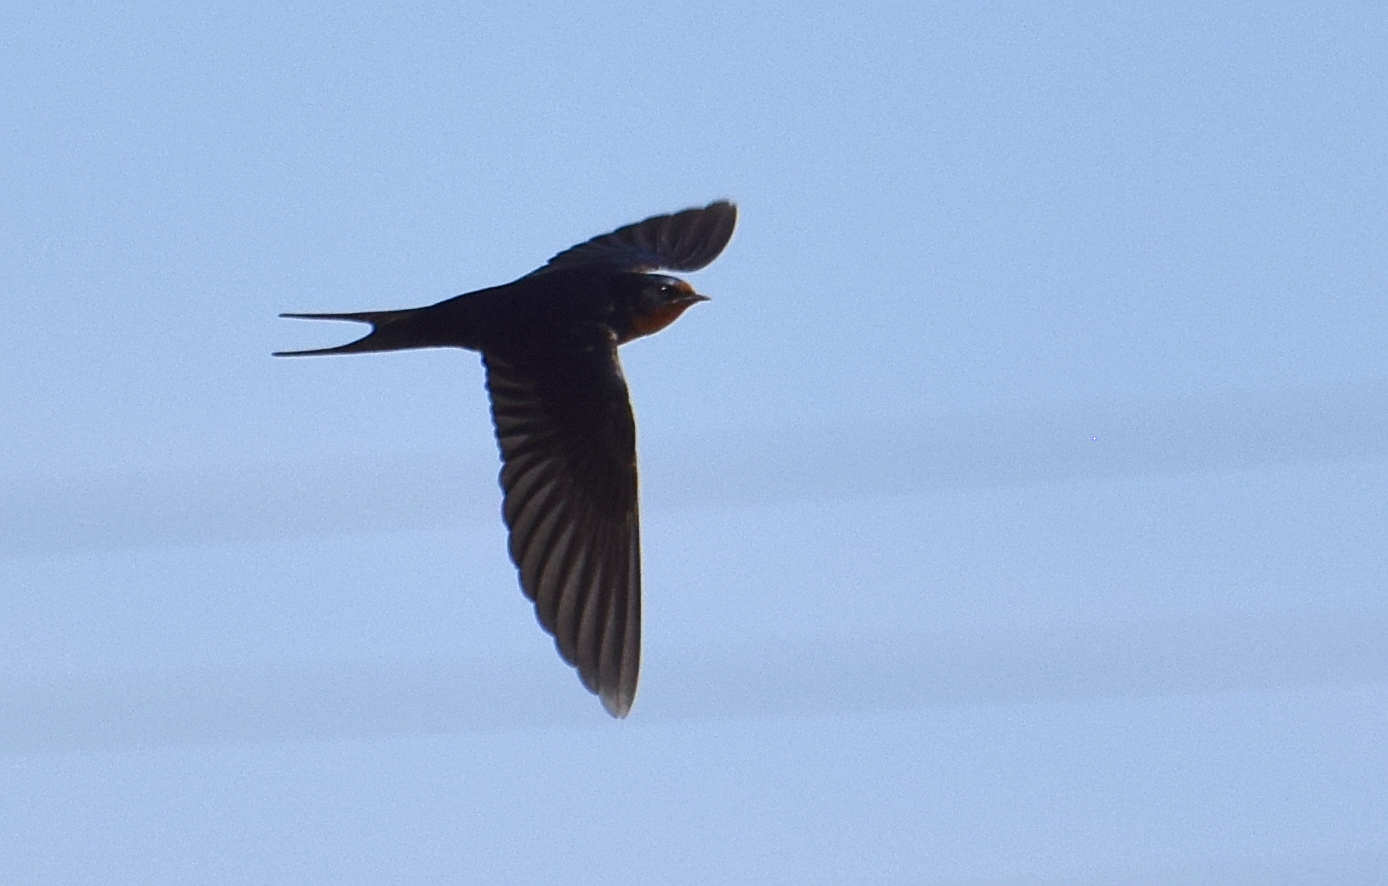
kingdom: Animalia
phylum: Chordata
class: Aves
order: Passeriformes
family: Hirundinidae
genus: Hirundo
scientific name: Hirundo rustica
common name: Barn swallow
